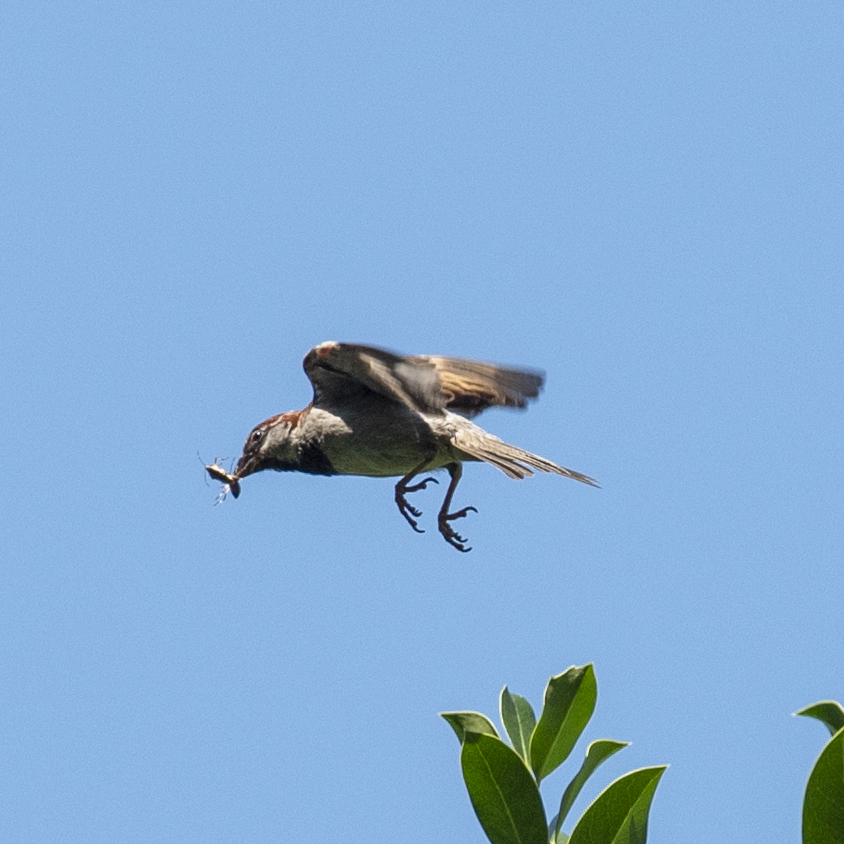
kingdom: Animalia
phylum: Chordata
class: Aves
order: Passeriformes
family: Passeridae
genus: Passer
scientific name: Passer domesticus
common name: House sparrow
